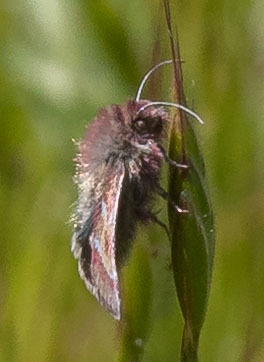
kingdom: Animalia
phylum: Arthropoda
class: Insecta
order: Lepidoptera
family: Noctuidae
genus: Schinia
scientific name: Schinia pulchripennis
